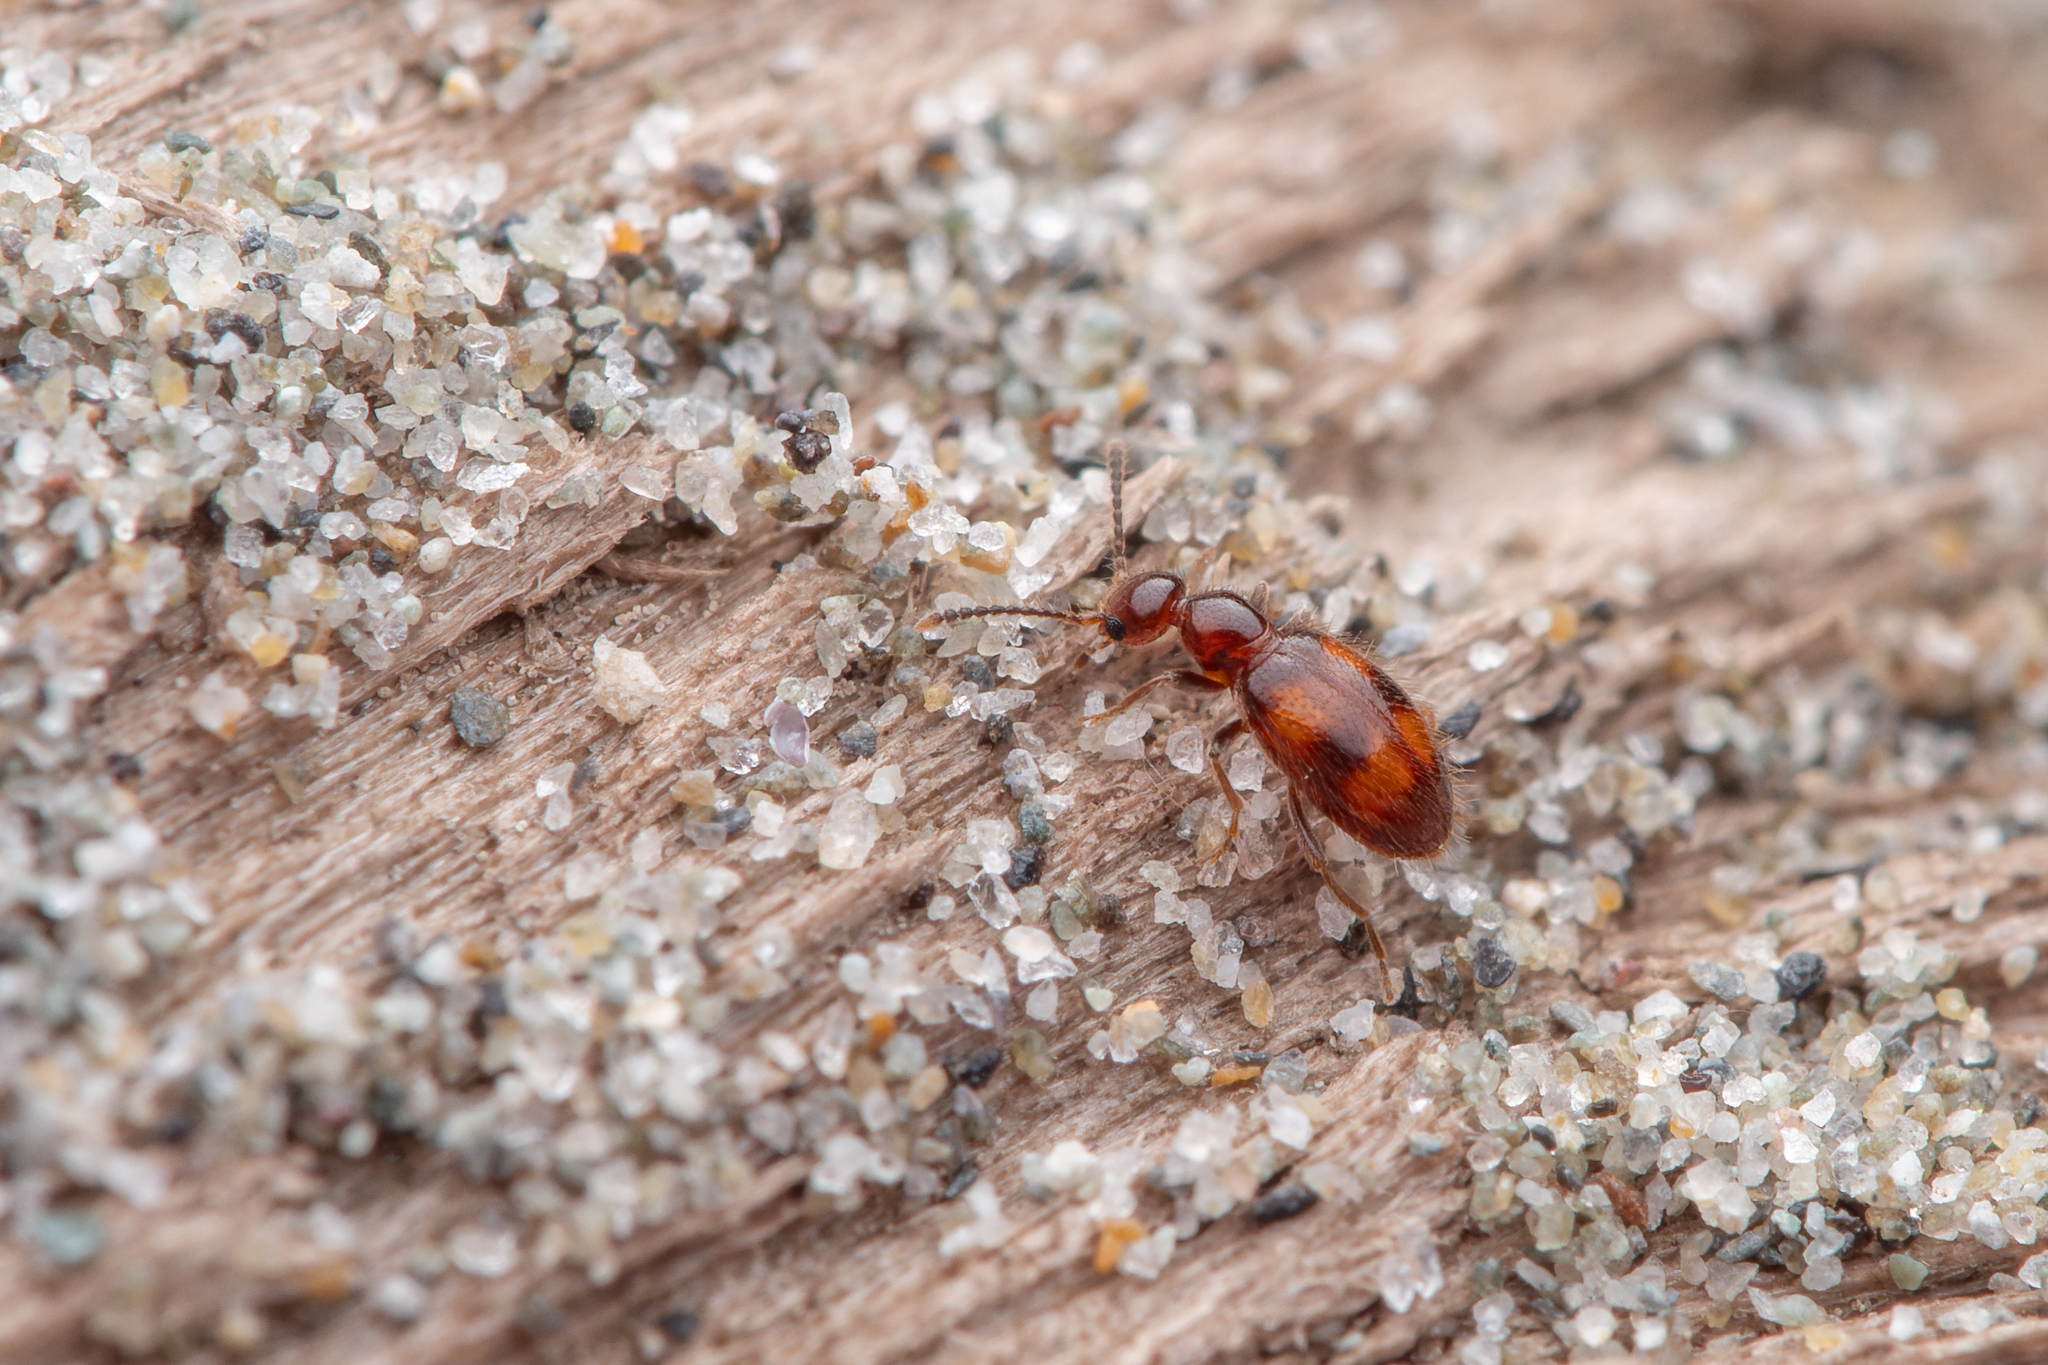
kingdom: Animalia
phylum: Arthropoda
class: Insecta
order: Coleoptera
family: Anthicidae
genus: Sapintus
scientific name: Sapintus aucklandensis
